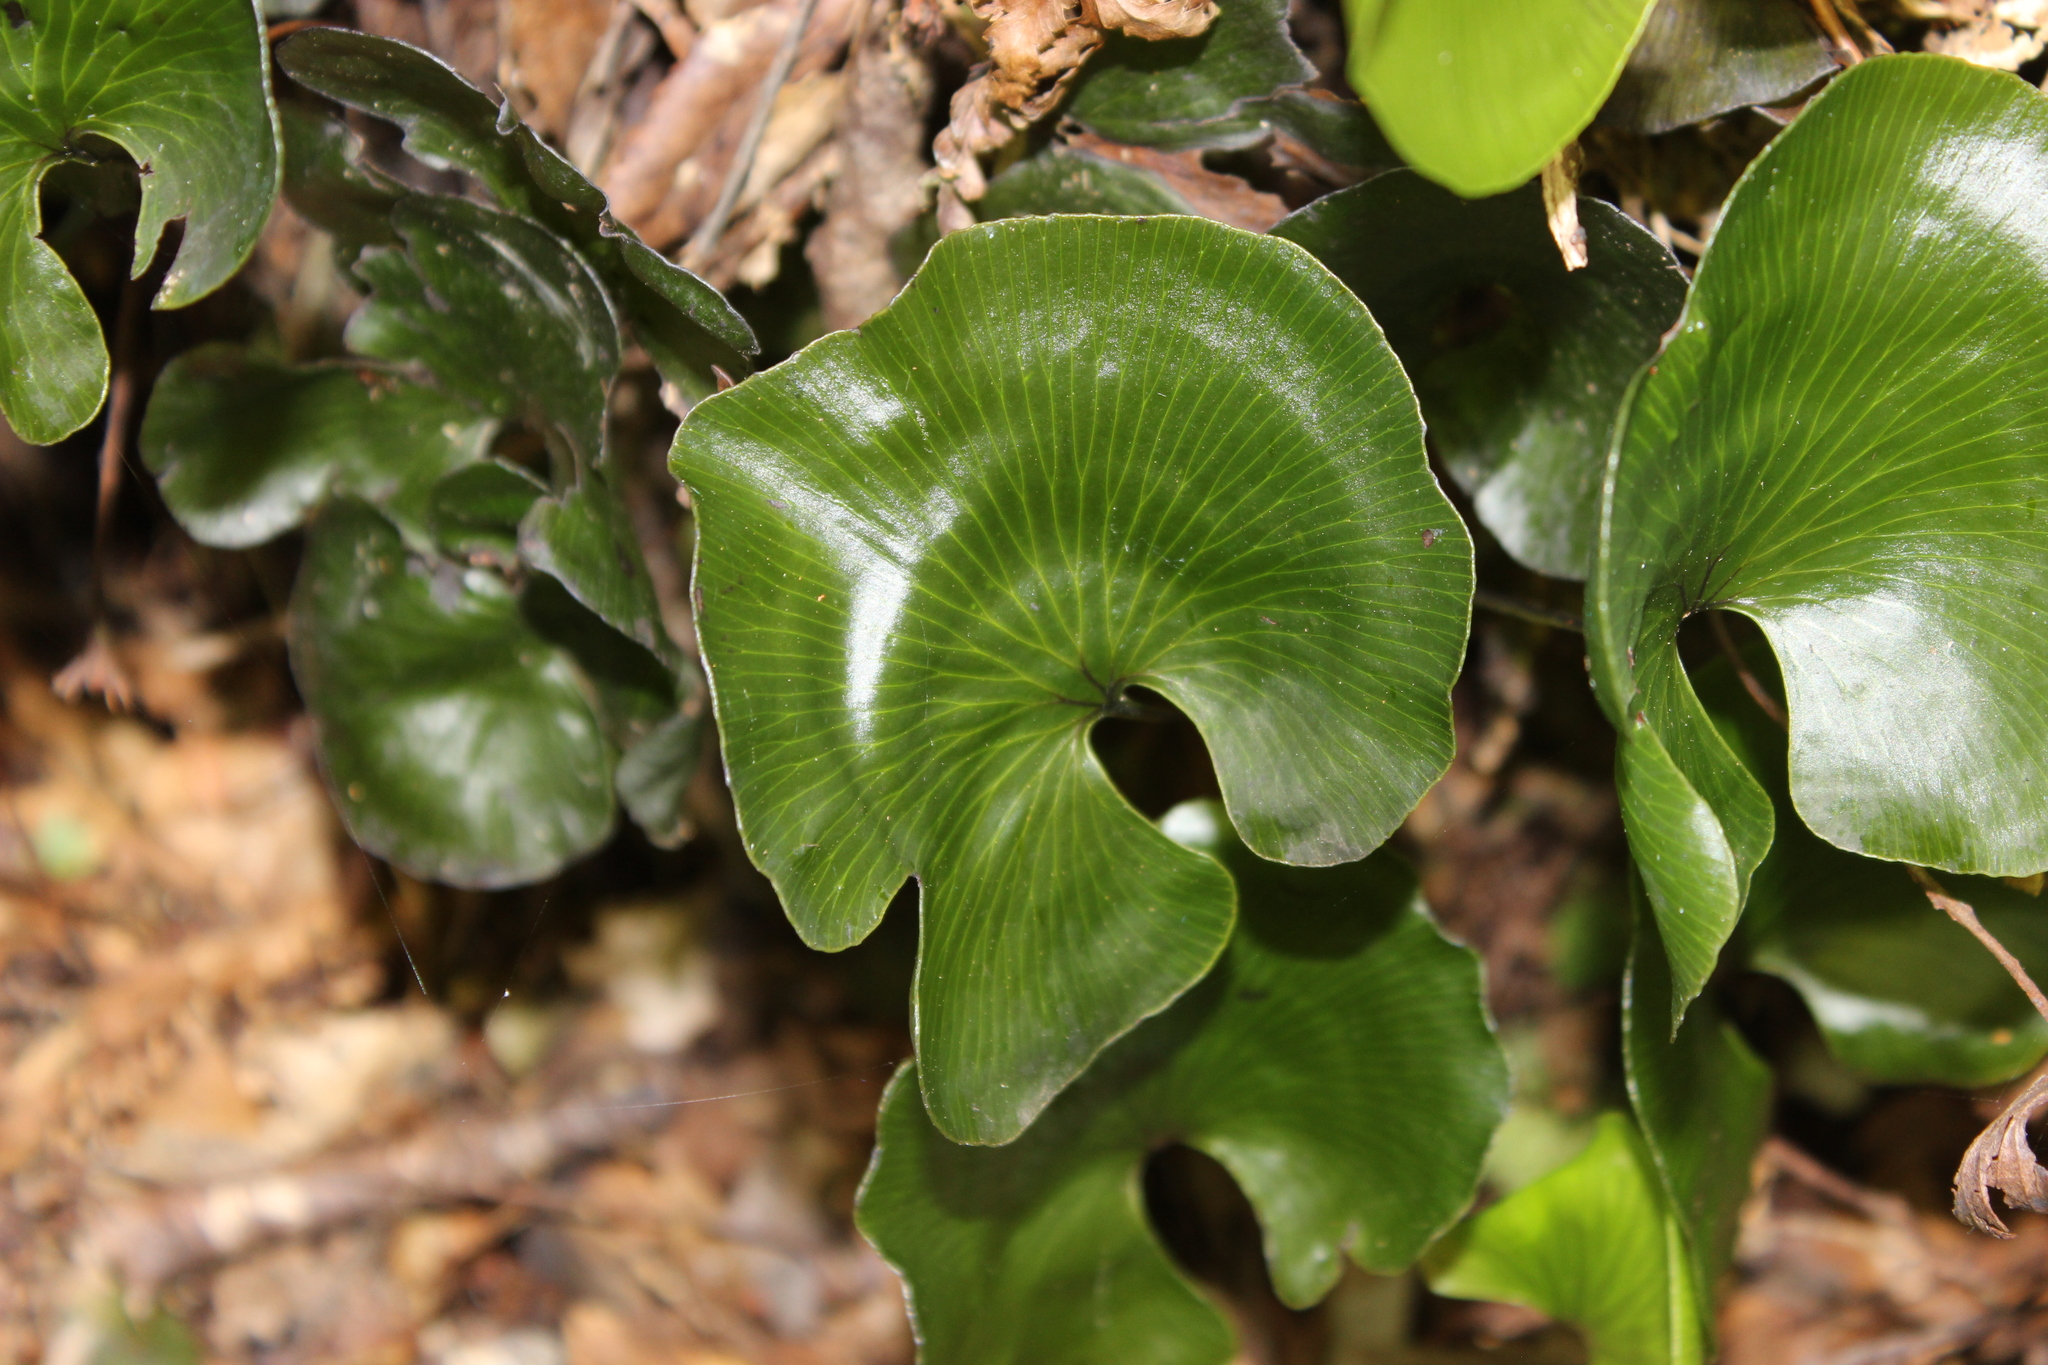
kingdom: Plantae
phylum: Tracheophyta
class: Polypodiopsida
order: Hymenophyllales
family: Hymenophyllaceae
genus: Hymenophyllum
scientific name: Hymenophyllum nephrophyllum
